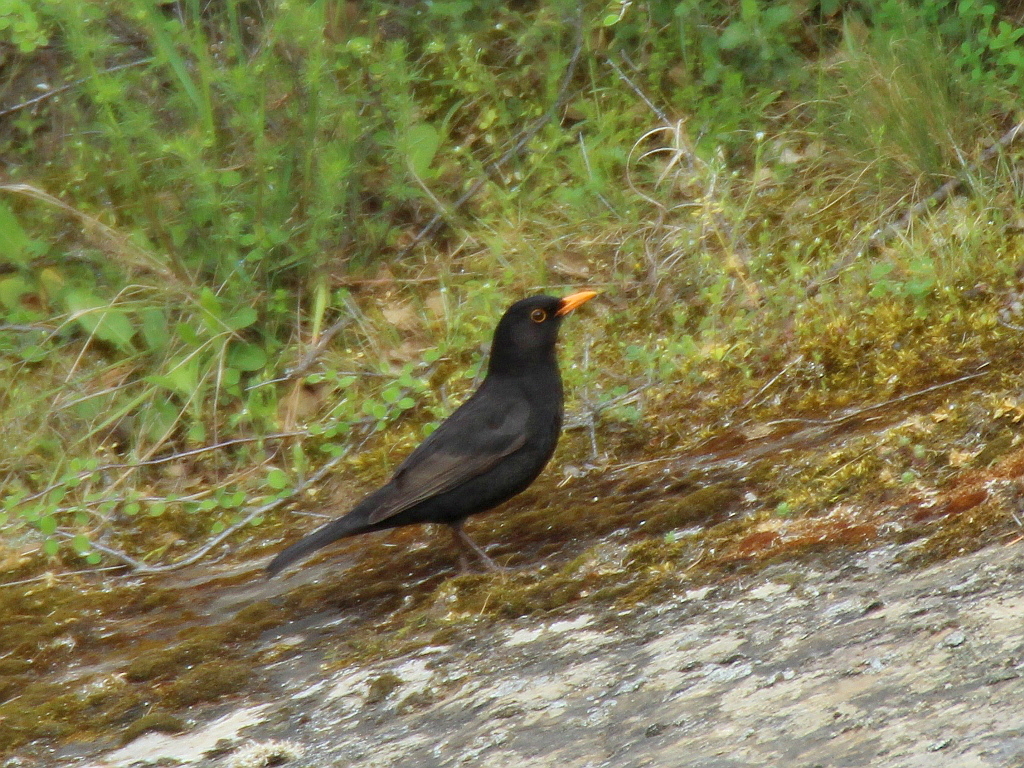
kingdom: Animalia
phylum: Chordata
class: Aves
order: Passeriformes
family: Turdidae
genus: Turdus
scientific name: Turdus merula
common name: Common blackbird
